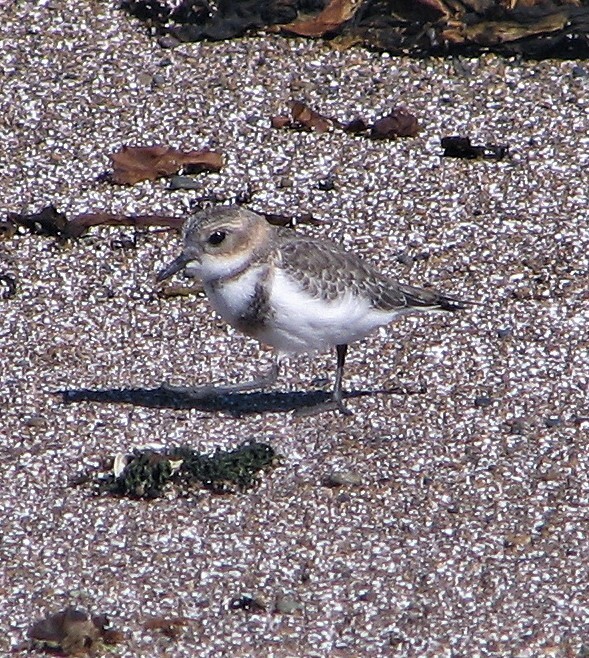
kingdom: Animalia
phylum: Chordata
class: Aves
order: Charadriiformes
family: Charadriidae
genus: Anarhynchus
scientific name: Anarhynchus
